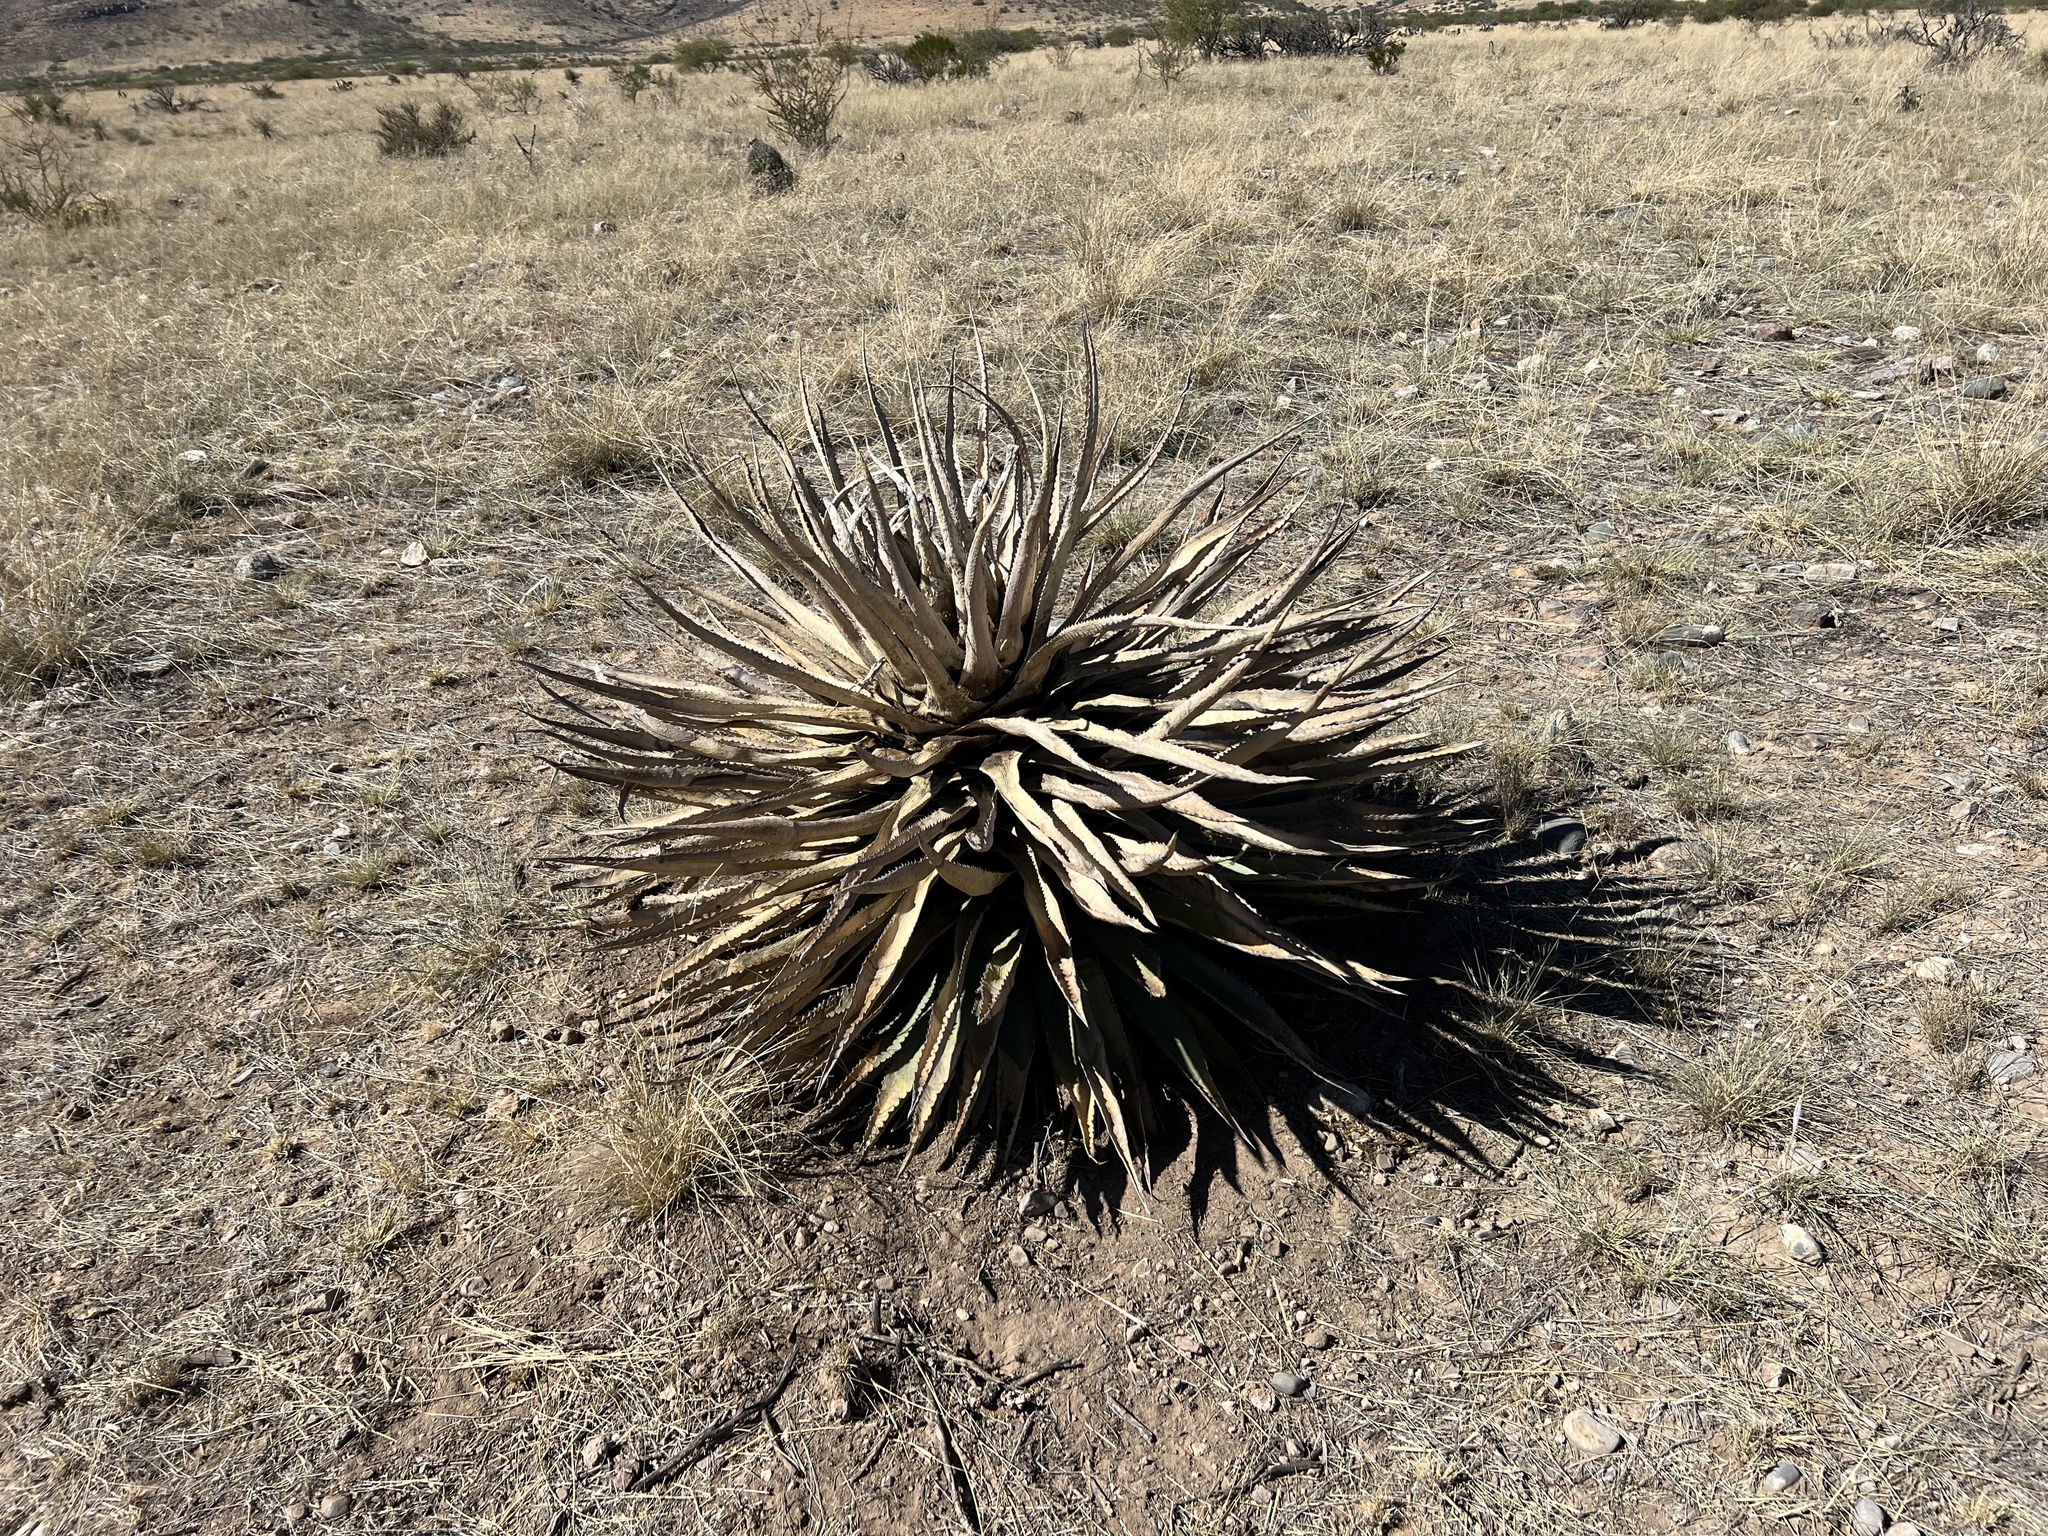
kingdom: Plantae
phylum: Tracheophyta
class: Liliopsida
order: Asparagales
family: Asparagaceae
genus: Agave
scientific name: Agave palmeri
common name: Palmer agave
